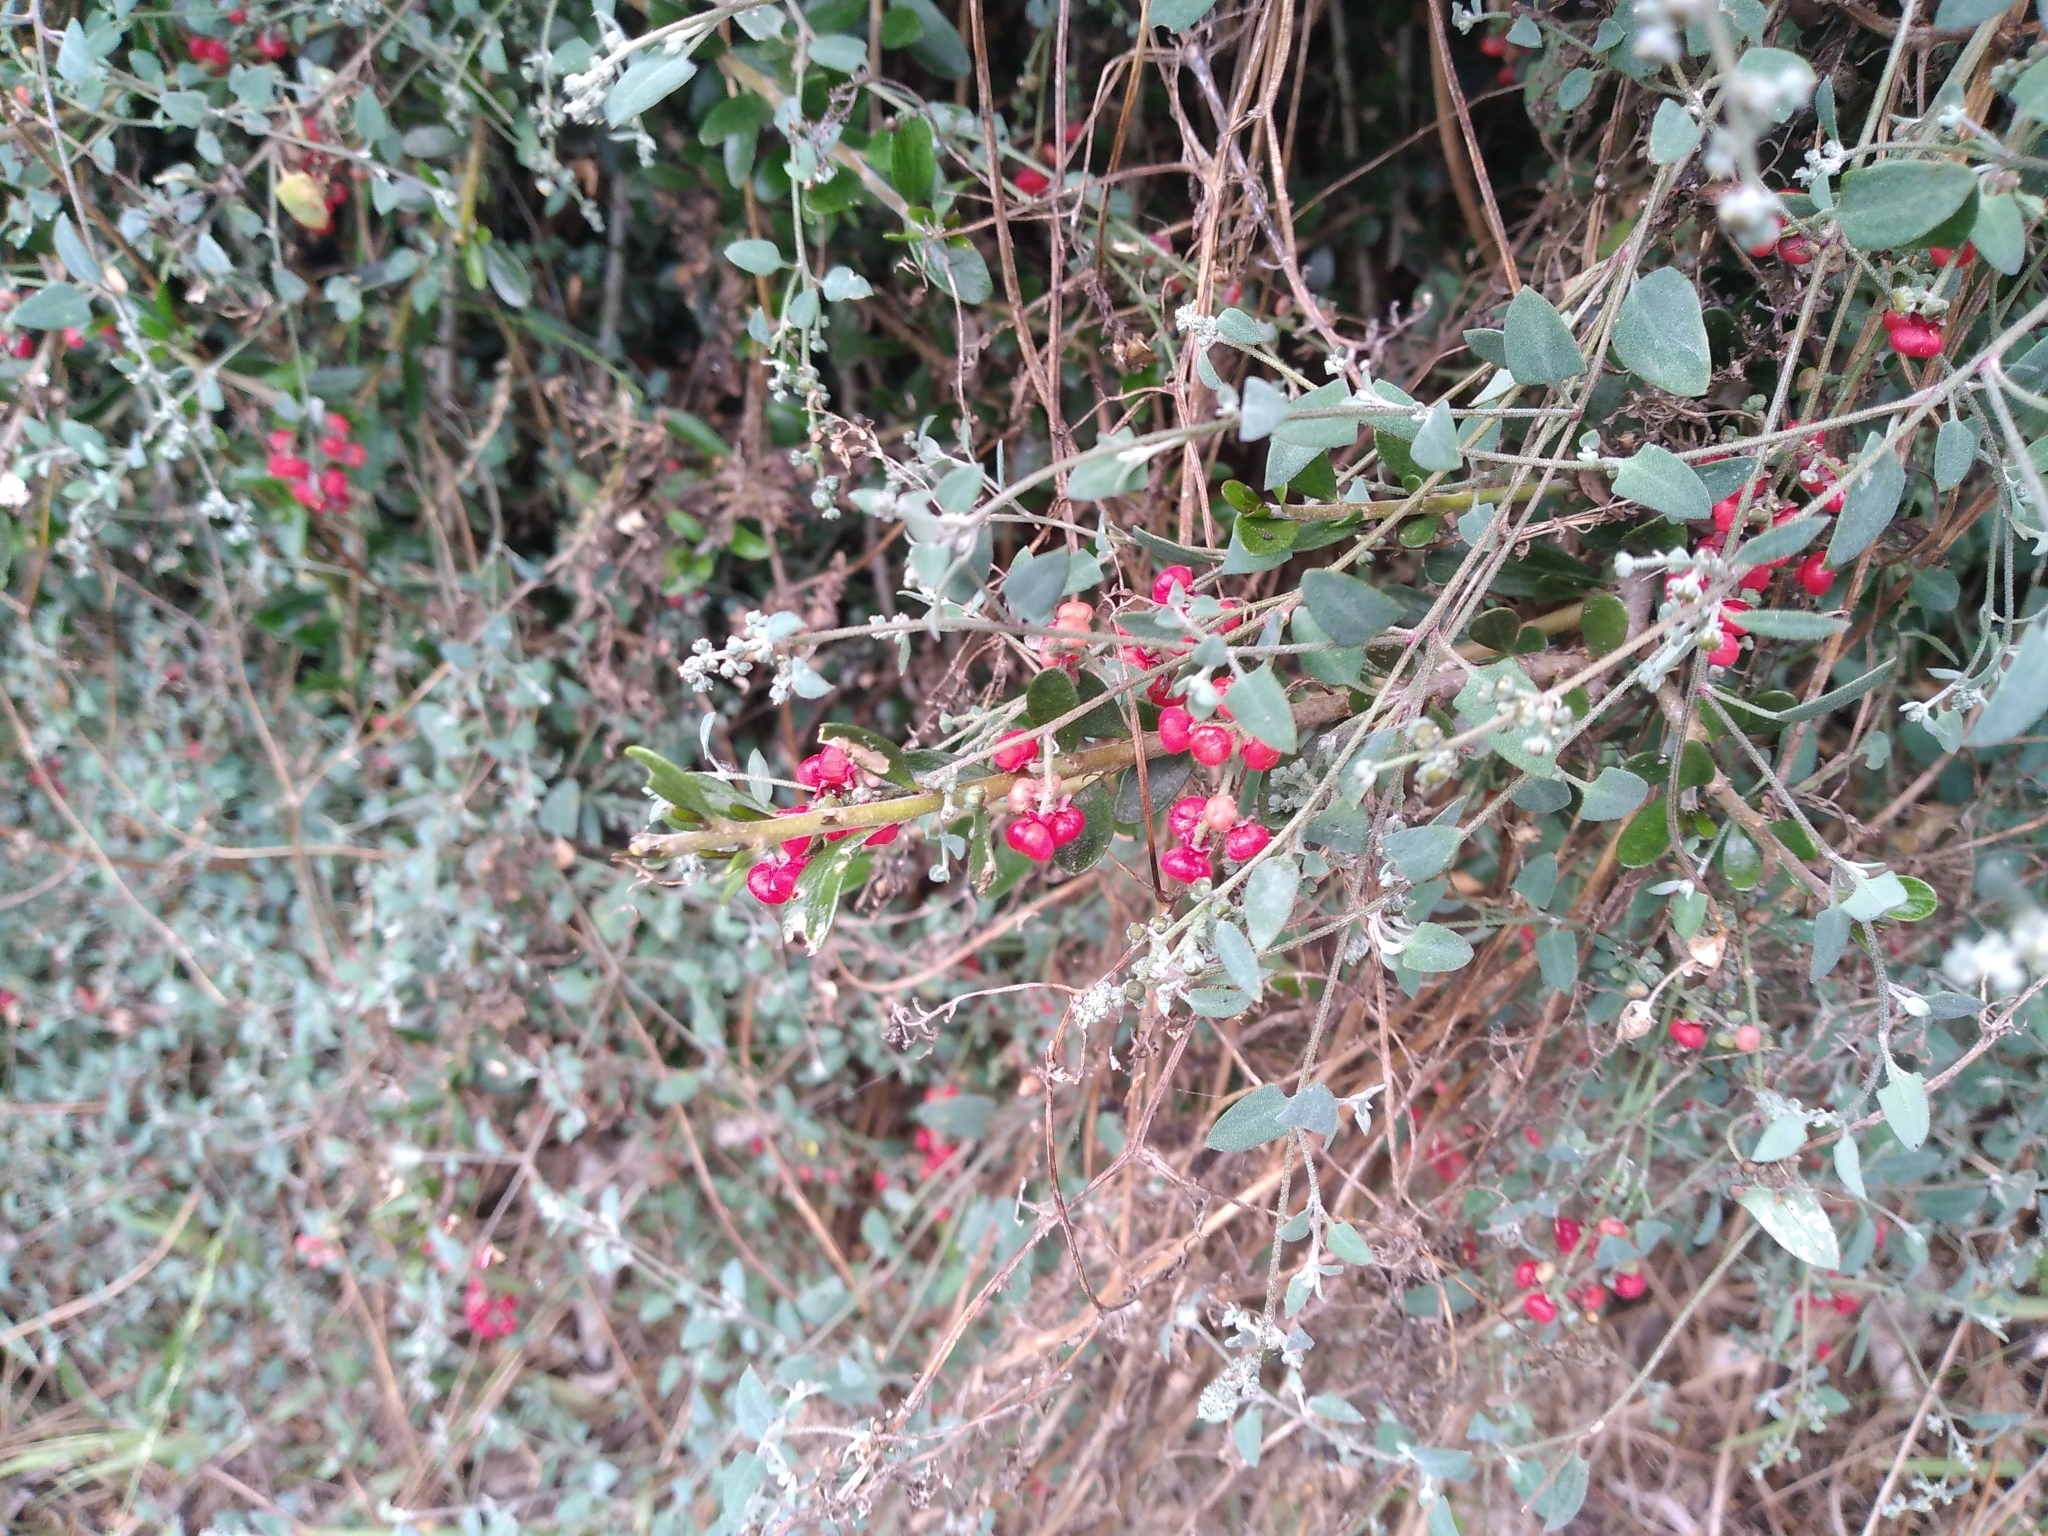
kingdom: Plantae
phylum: Tracheophyta
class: Magnoliopsida
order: Caryophyllales
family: Amaranthaceae
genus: Chenopodium
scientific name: Chenopodium triandrum
